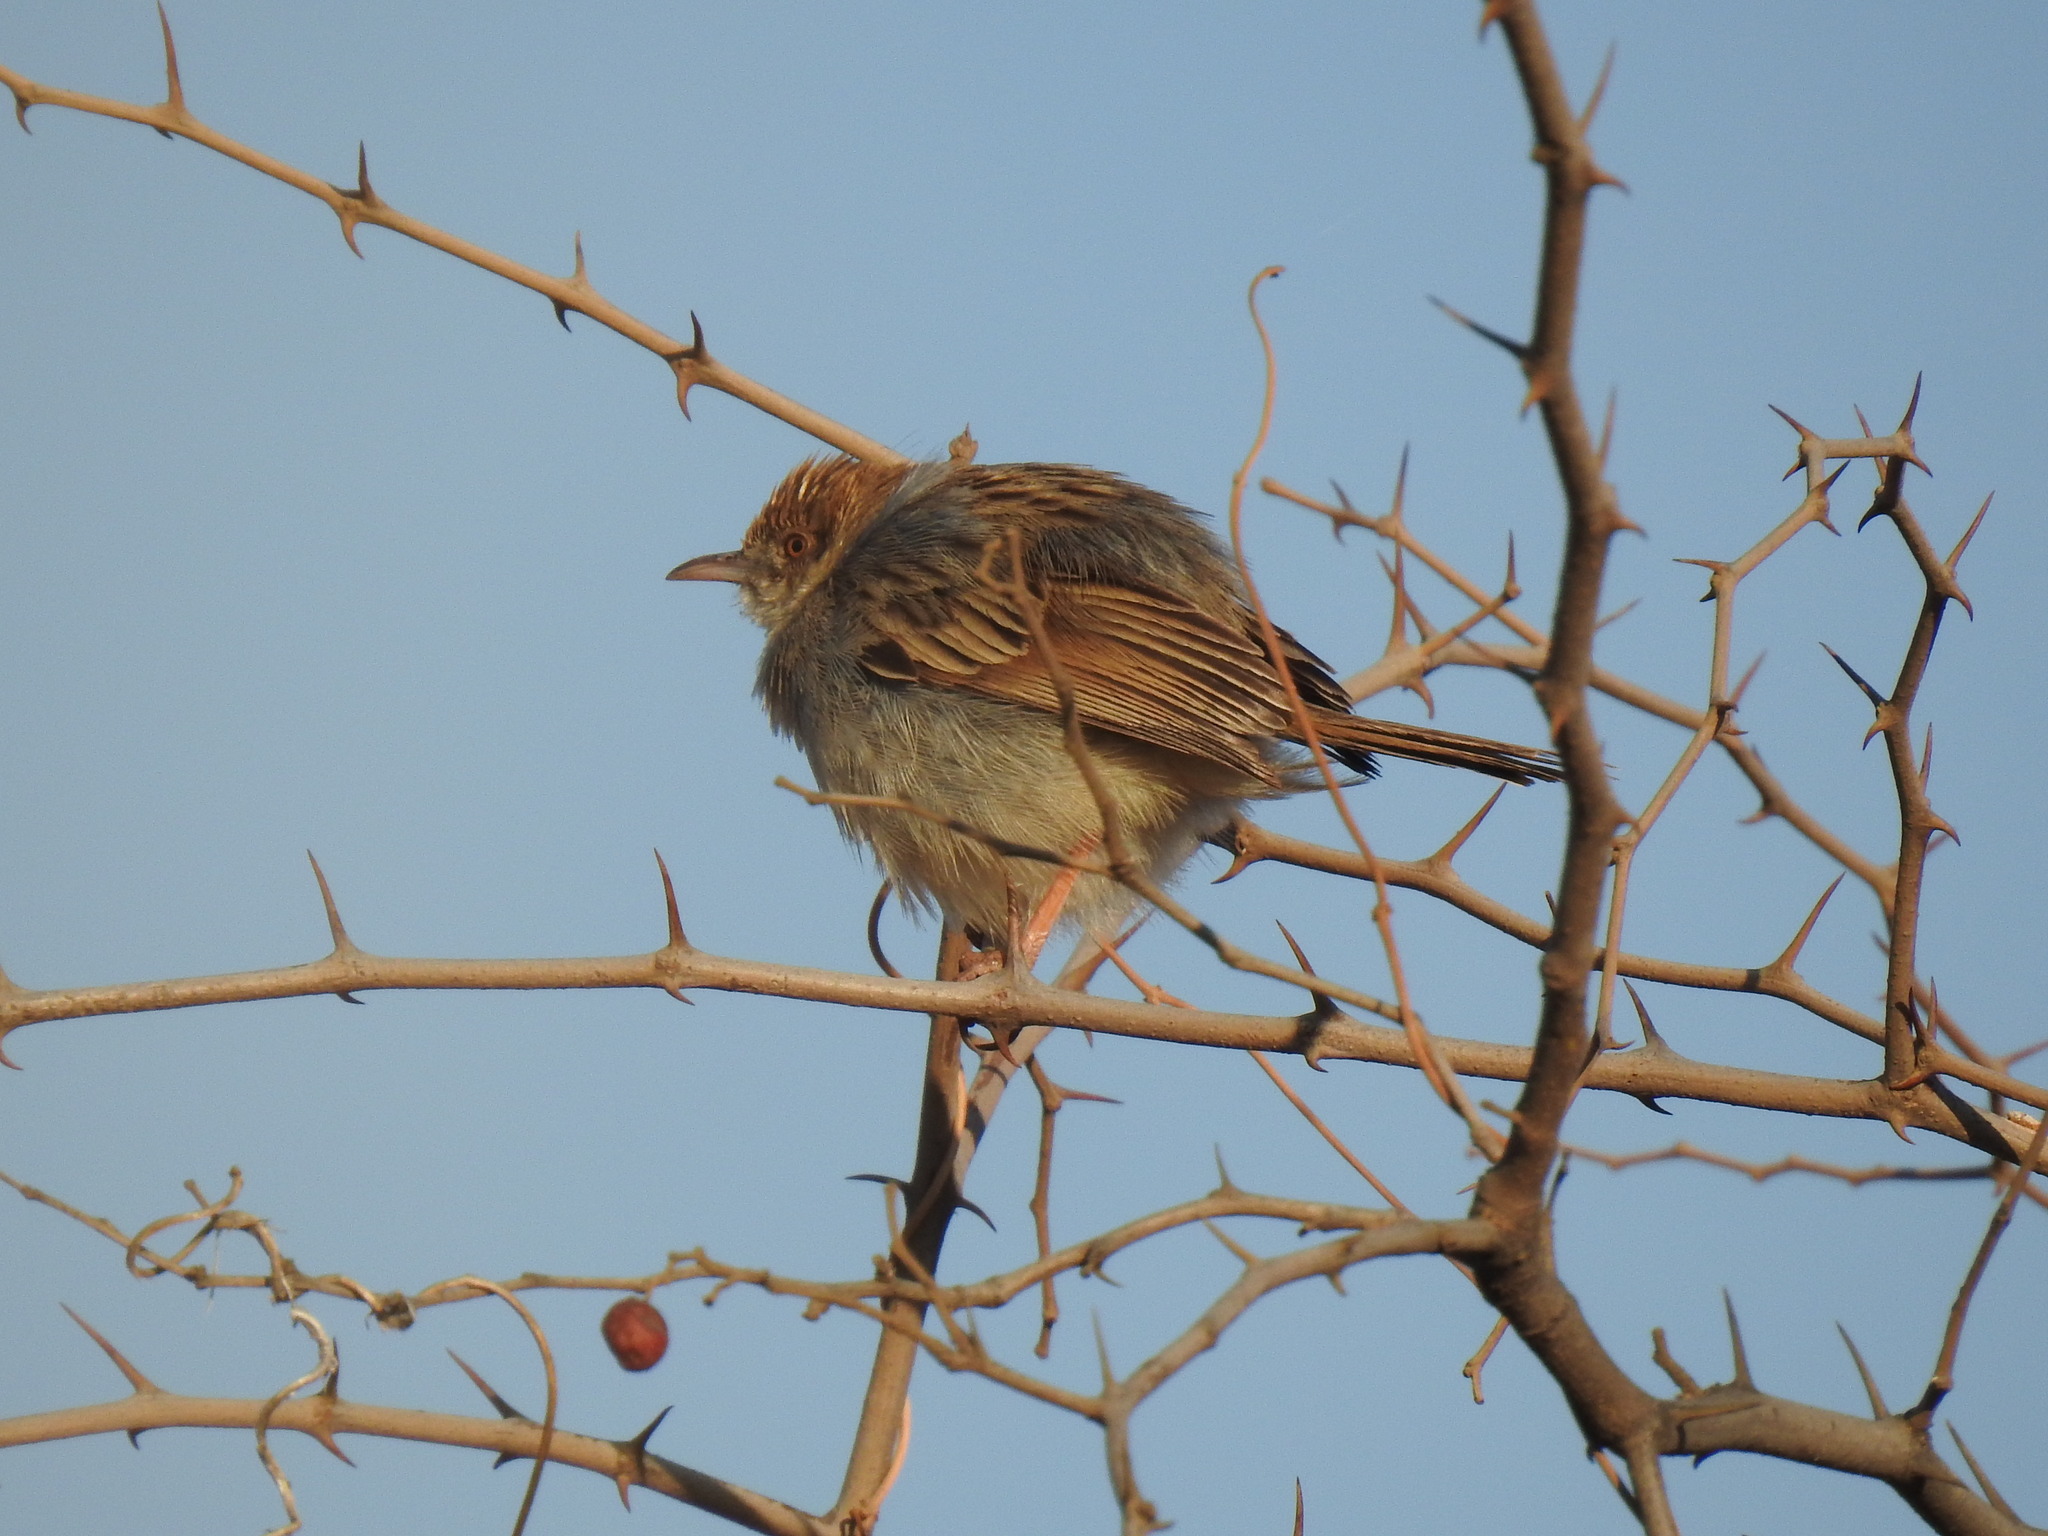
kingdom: Animalia
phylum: Chordata
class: Aves
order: Passeriformes
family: Cisticolidae
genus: Cisticola
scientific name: Cisticola chiniana
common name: Rattling cisticola
